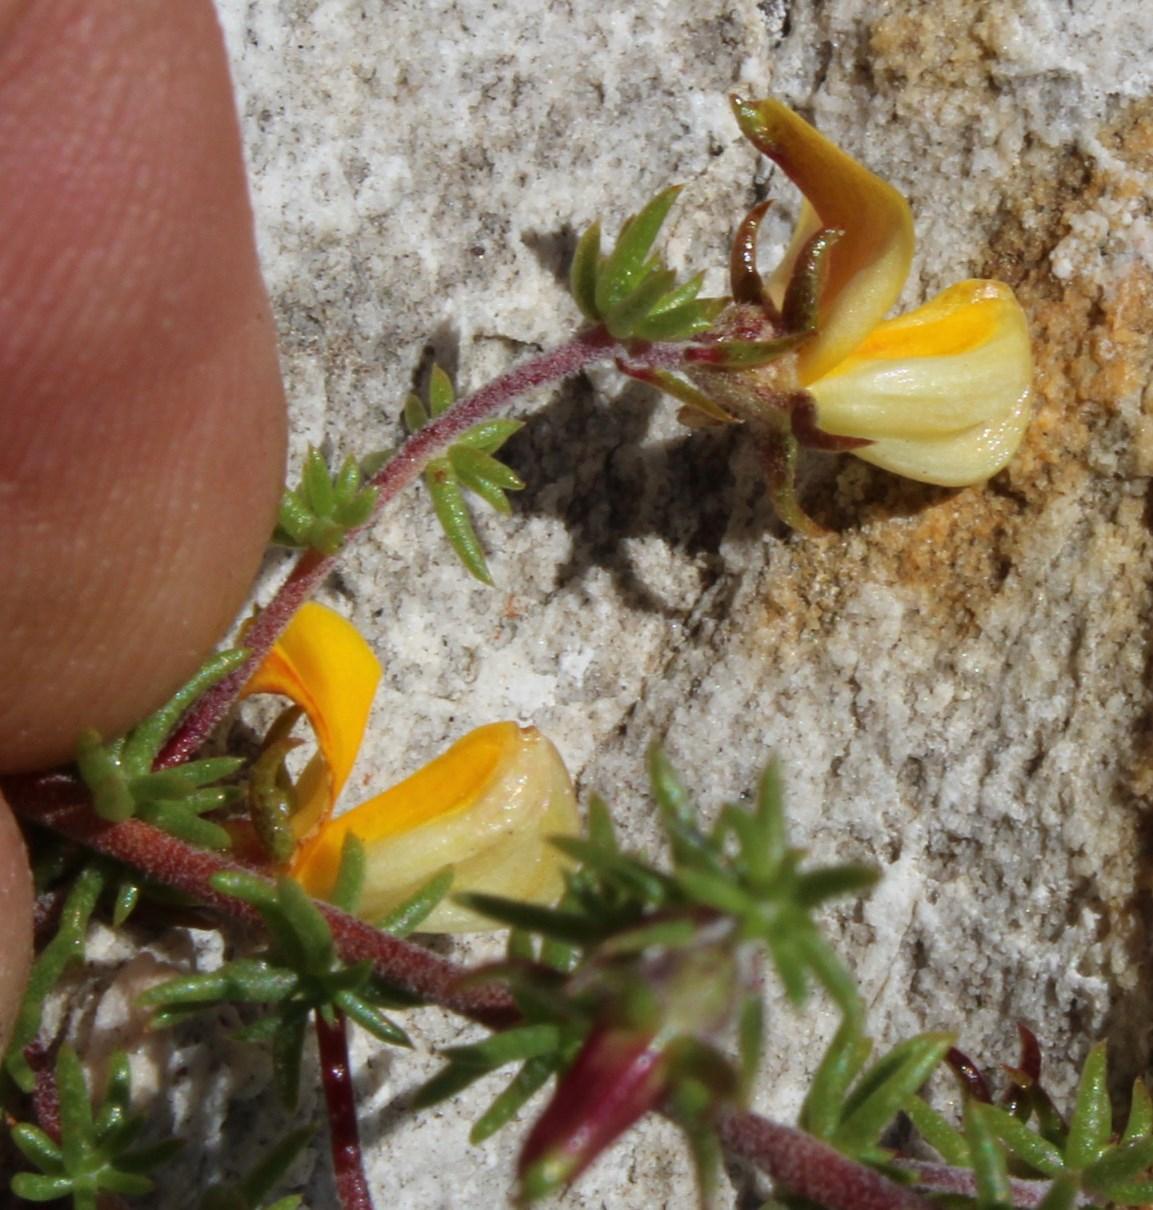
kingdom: Plantae
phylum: Tracheophyta
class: Magnoliopsida
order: Fabales
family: Fabaceae
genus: Aspalathus
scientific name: Aspalathus retroflexa
